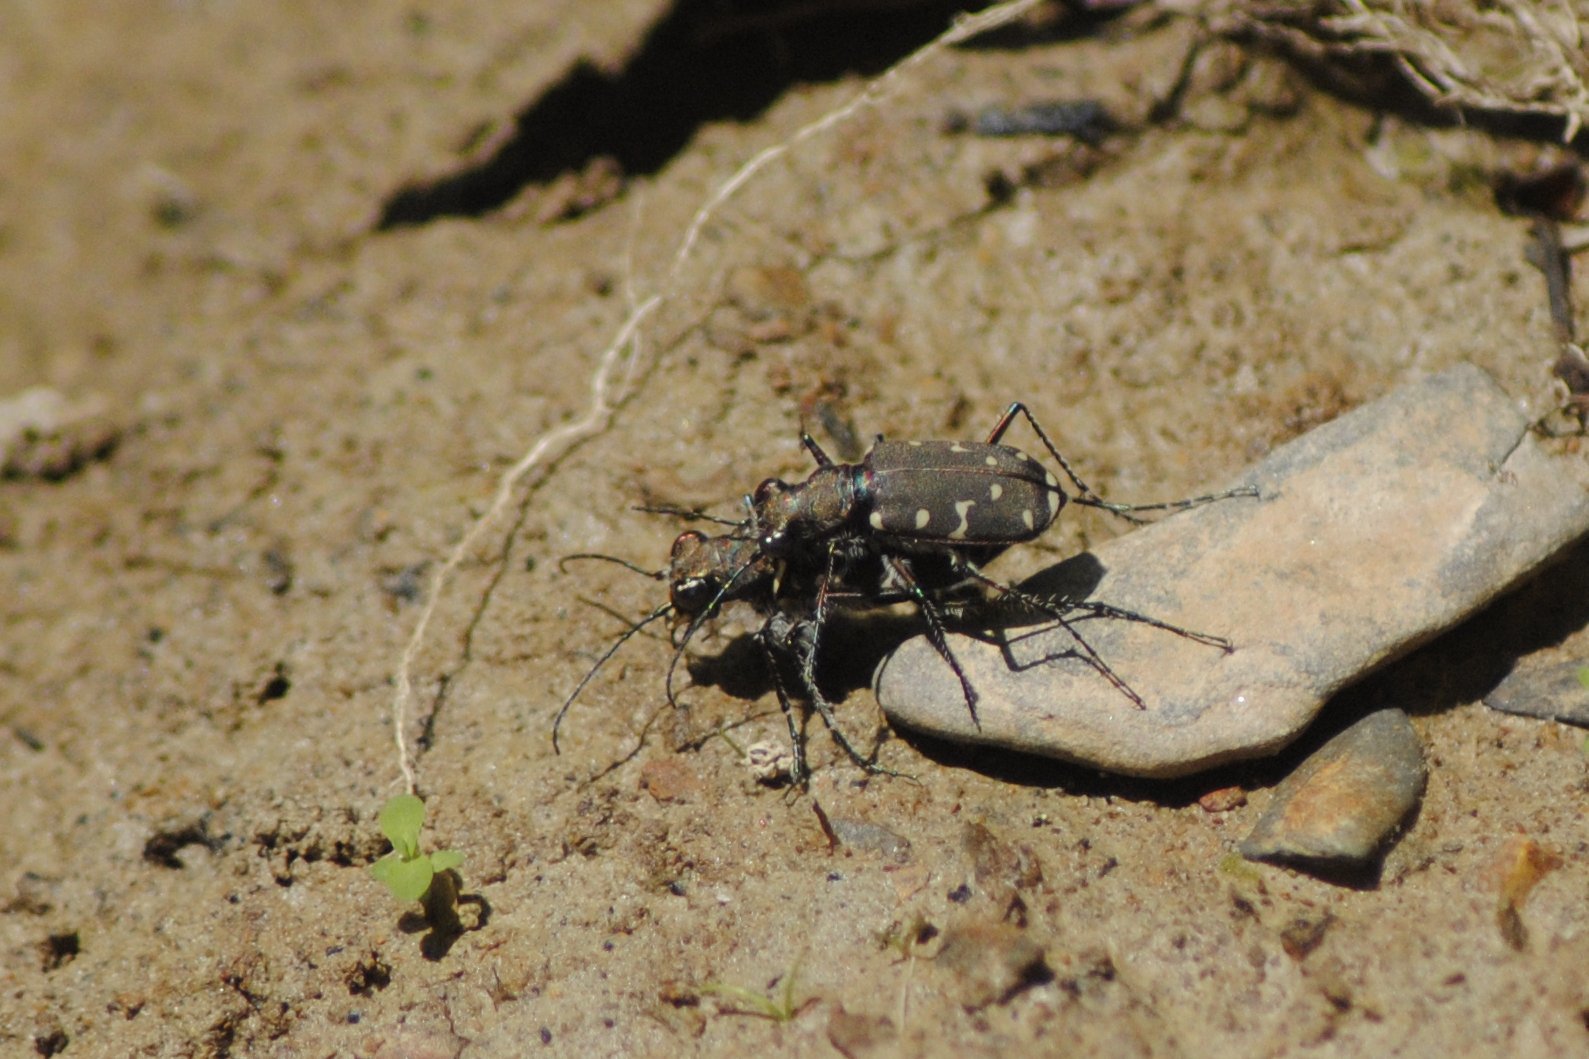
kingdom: Animalia
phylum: Arthropoda
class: Insecta
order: Coleoptera
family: Carabidae
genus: Cicindela
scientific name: Cicindela duodecimguttata
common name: Twelve-spotted tiger beetle
